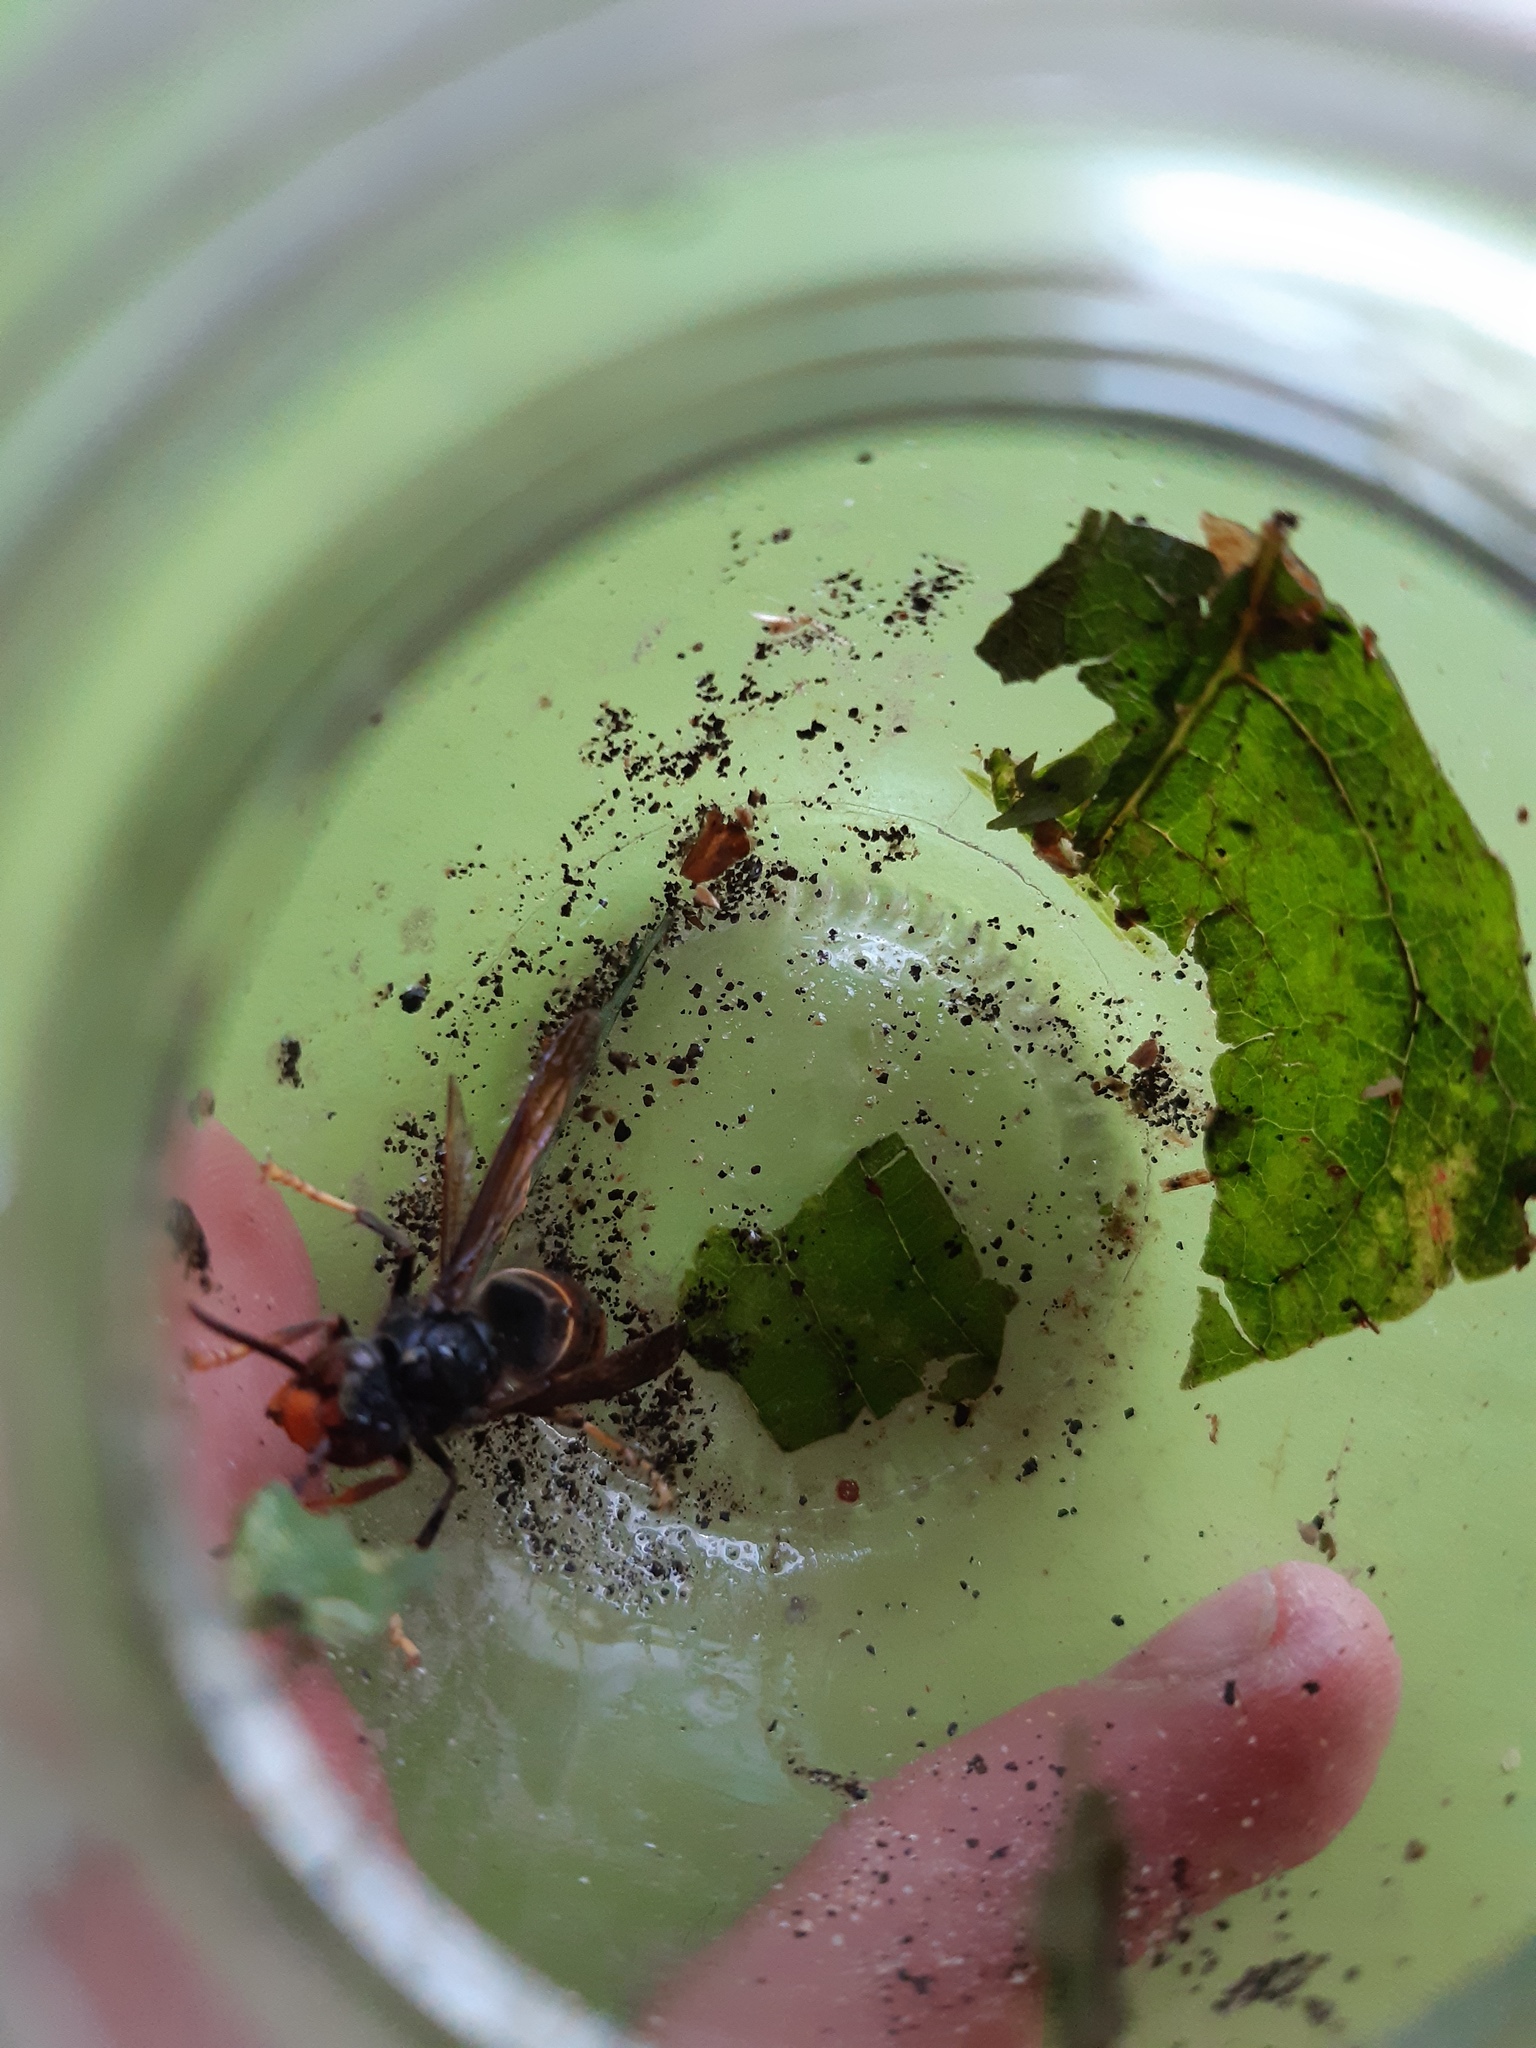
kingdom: Animalia
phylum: Arthropoda
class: Insecta
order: Hymenoptera
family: Vespidae
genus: Vespa
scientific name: Vespa velutina
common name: Asian hornet
